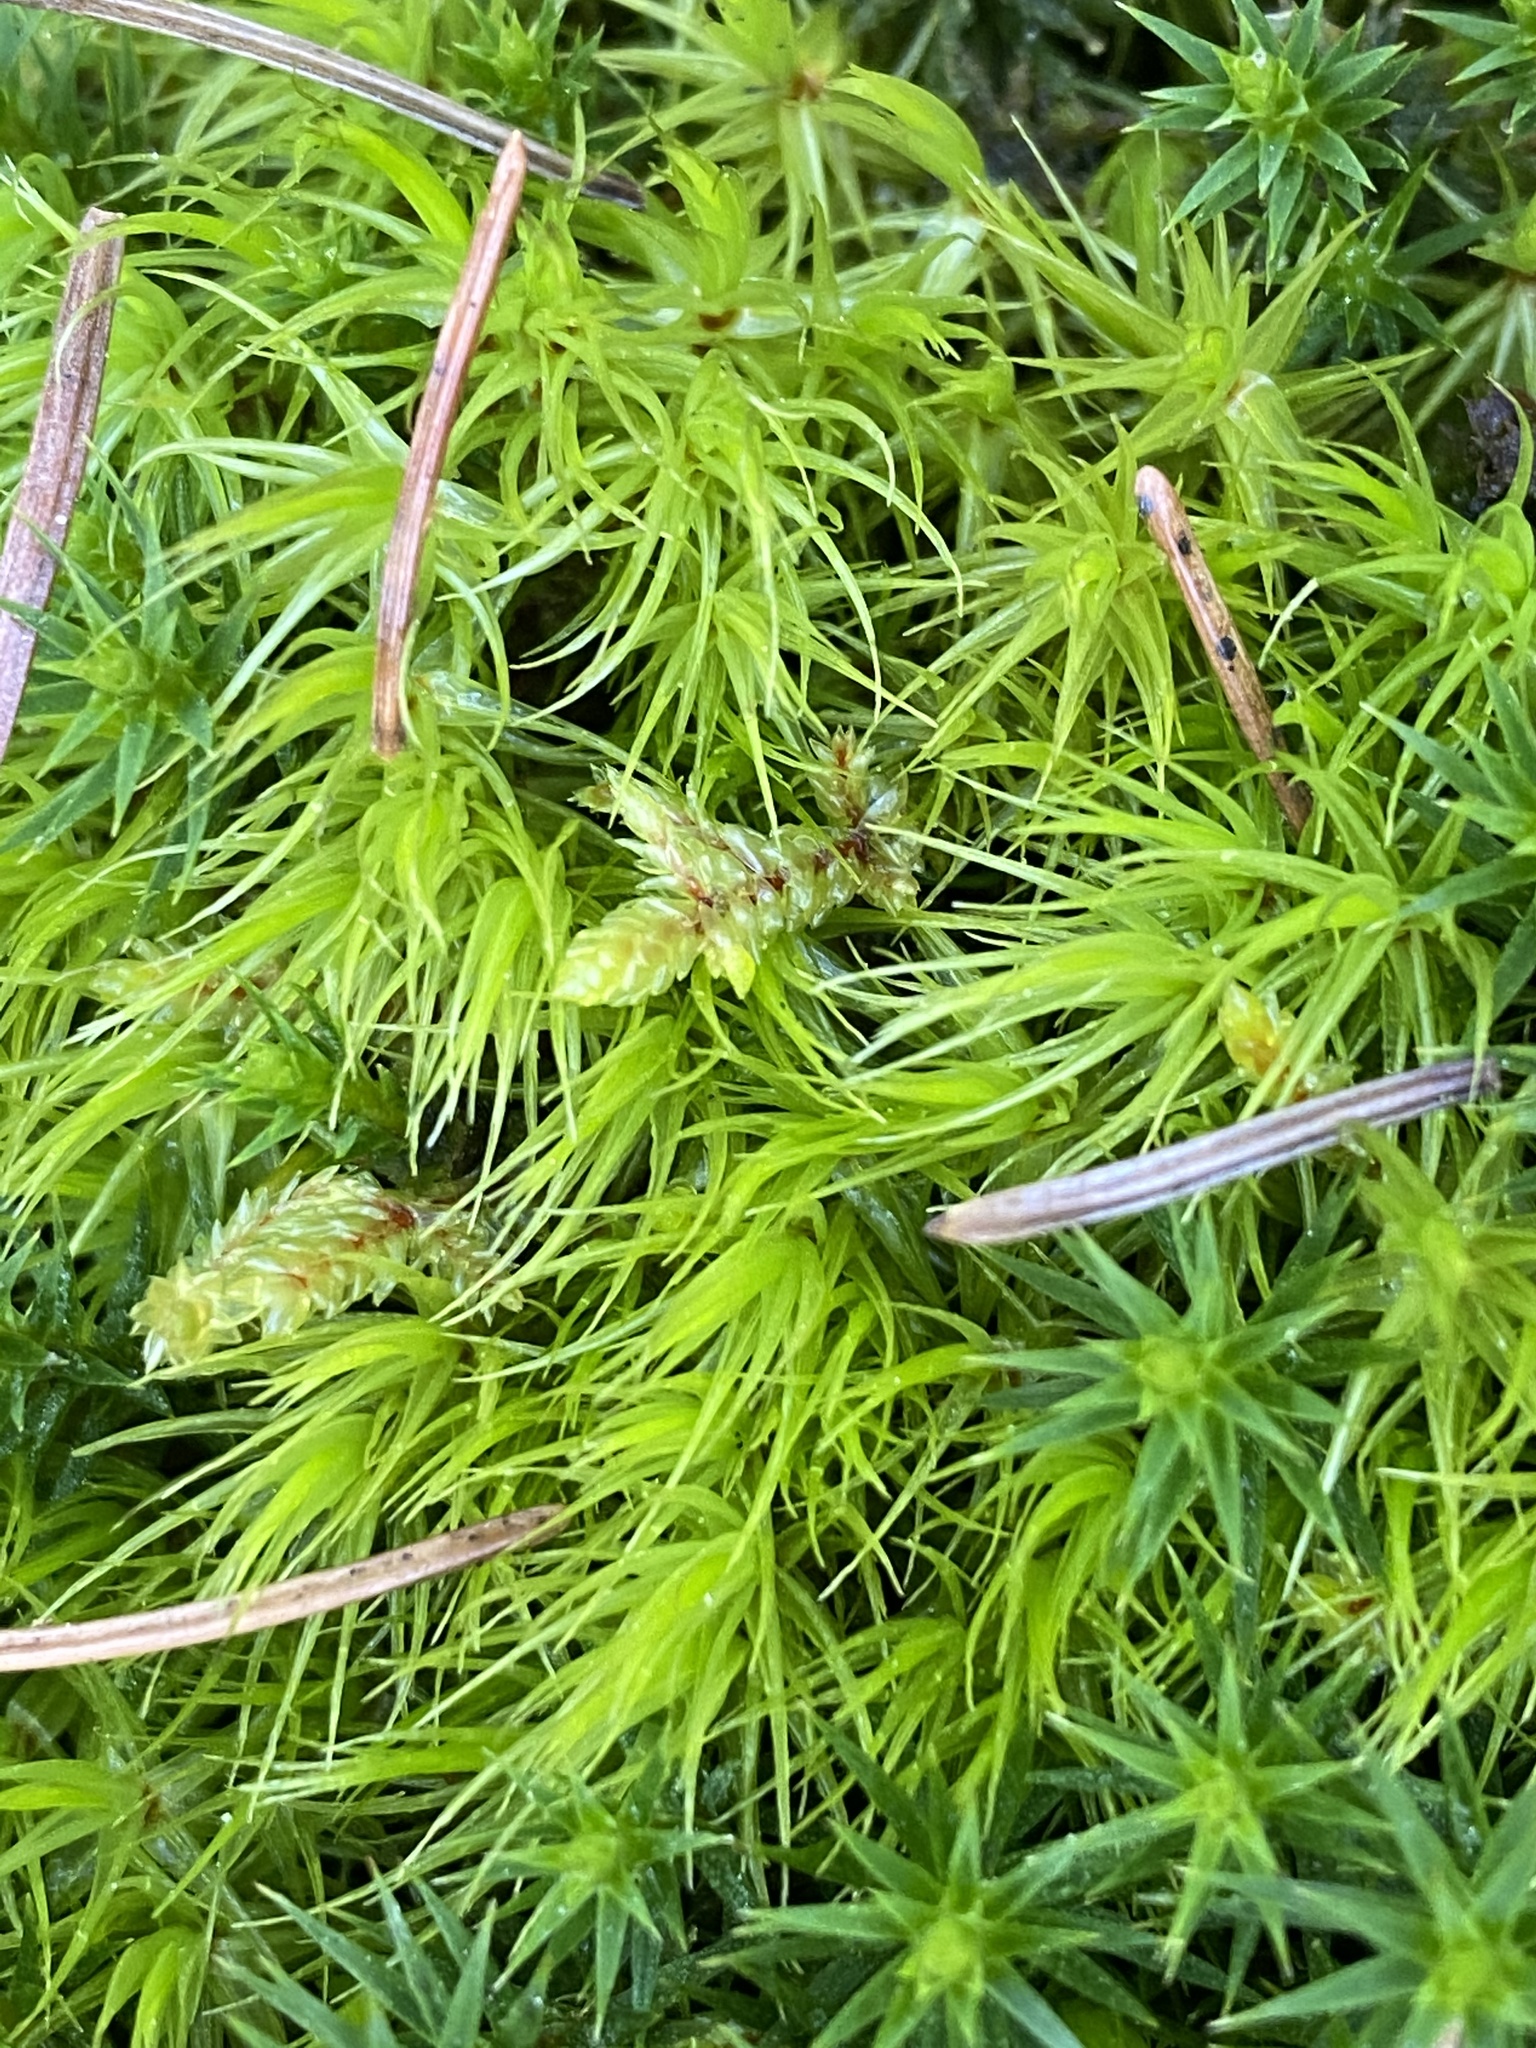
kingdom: Plantae
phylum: Bryophyta
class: Bryopsida
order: Dicranales
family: Dicranaceae
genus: Dicranum
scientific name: Dicranum scoparium
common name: Broom fork-moss
